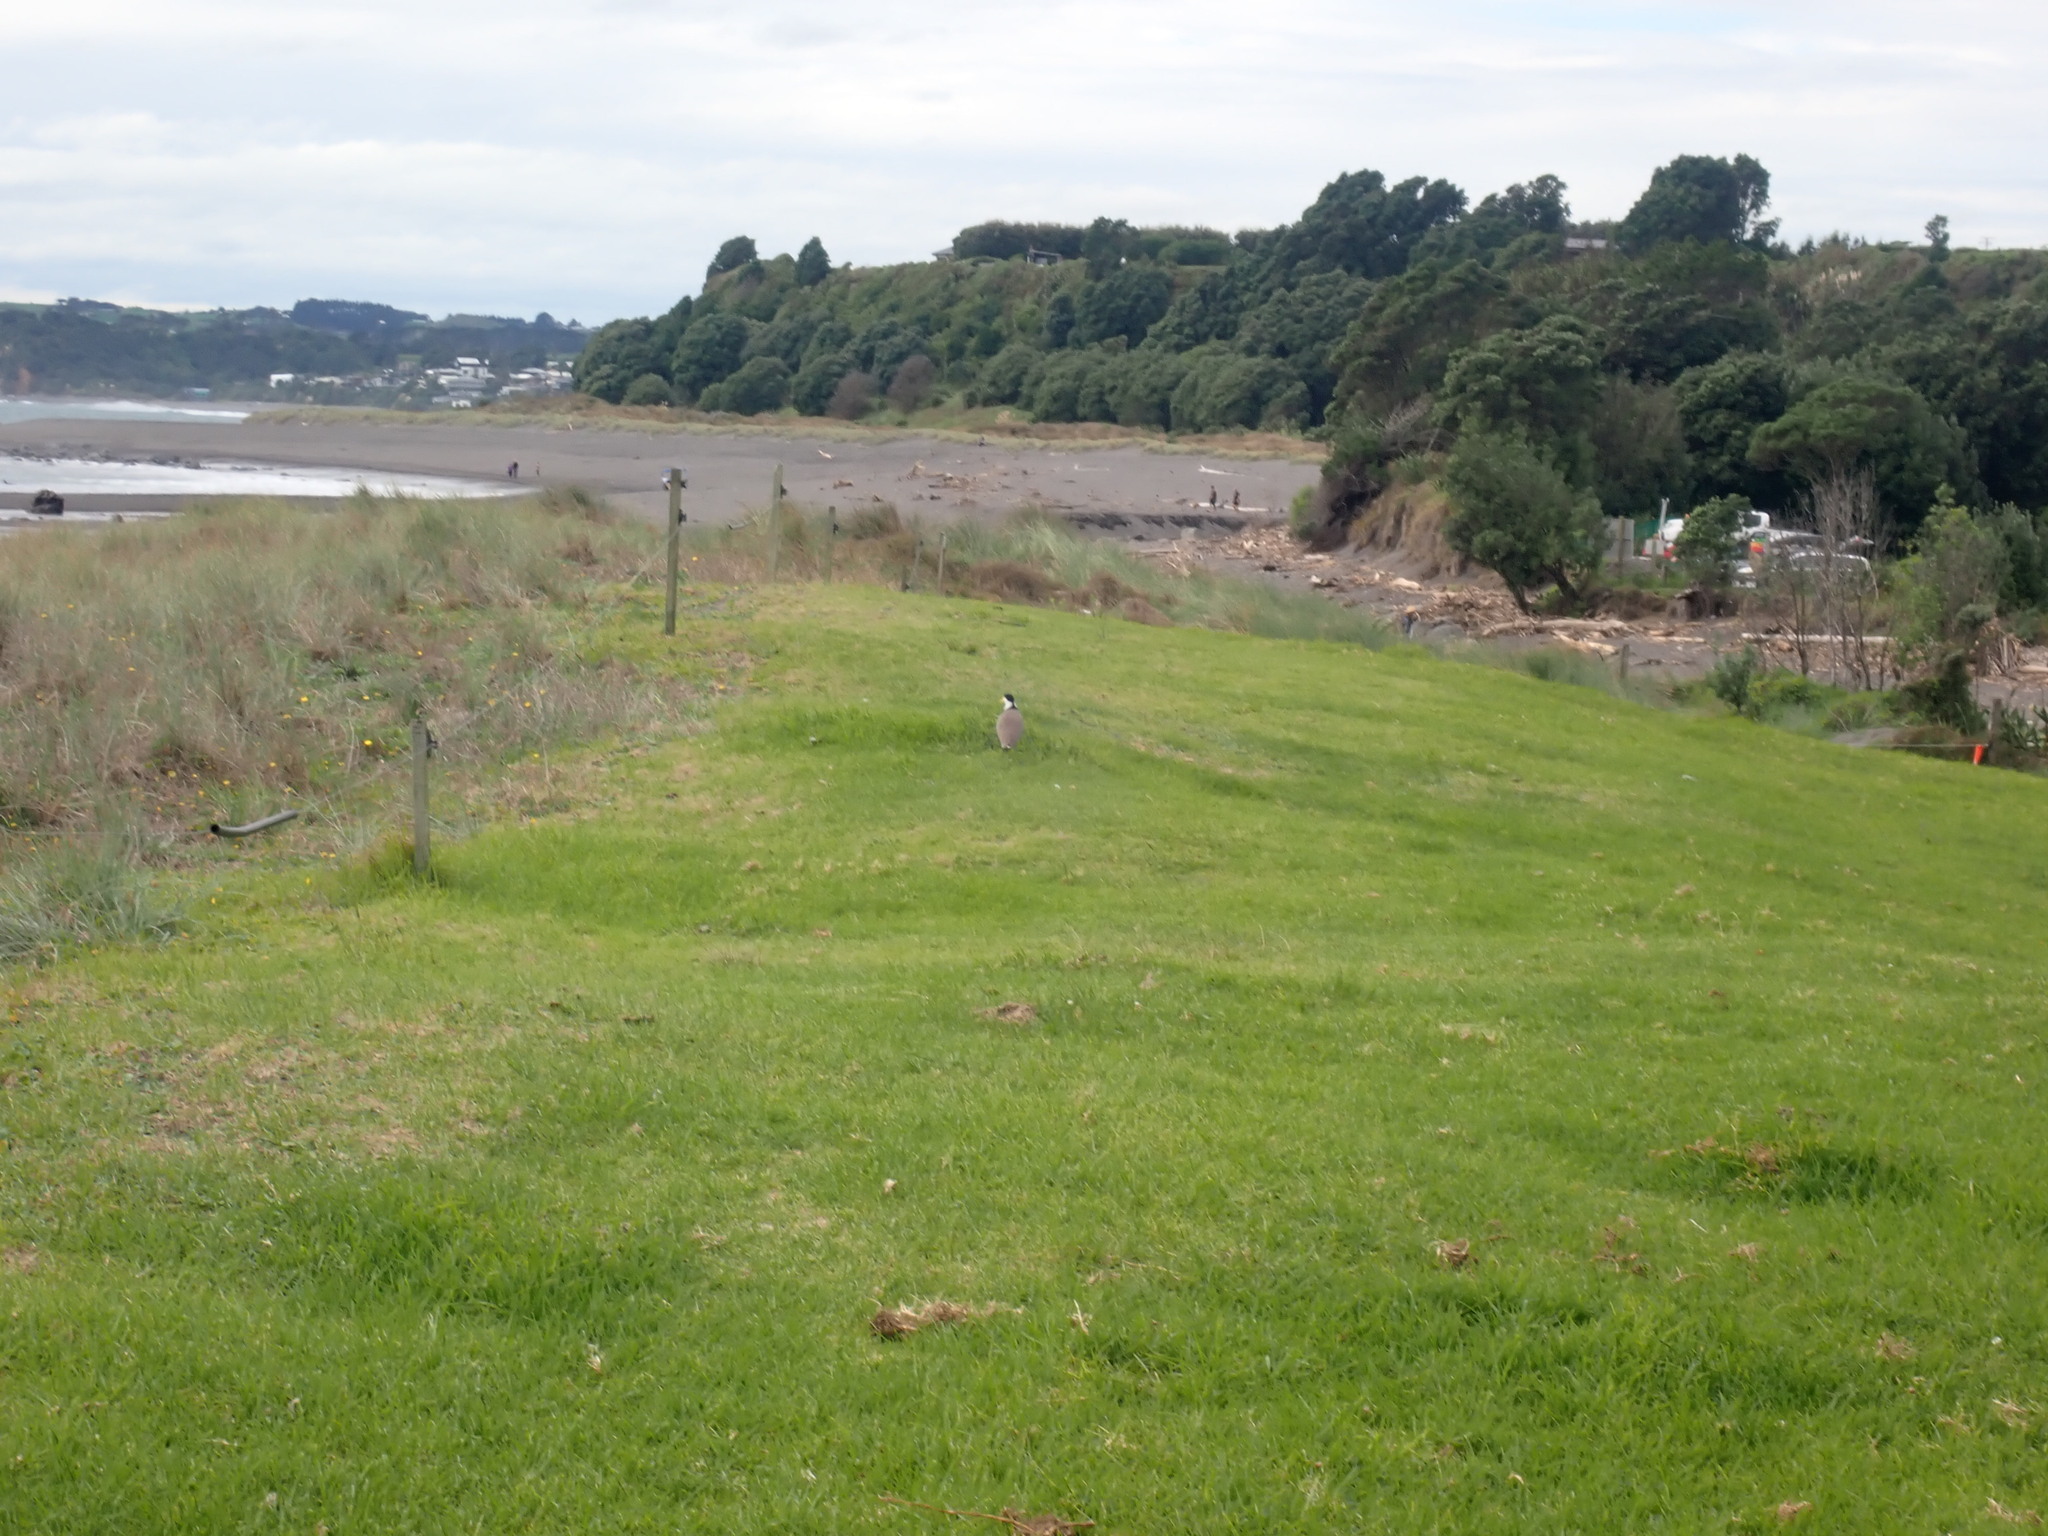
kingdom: Animalia
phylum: Chordata
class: Aves
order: Charadriiformes
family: Charadriidae
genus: Vanellus
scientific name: Vanellus miles
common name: Masked lapwing
